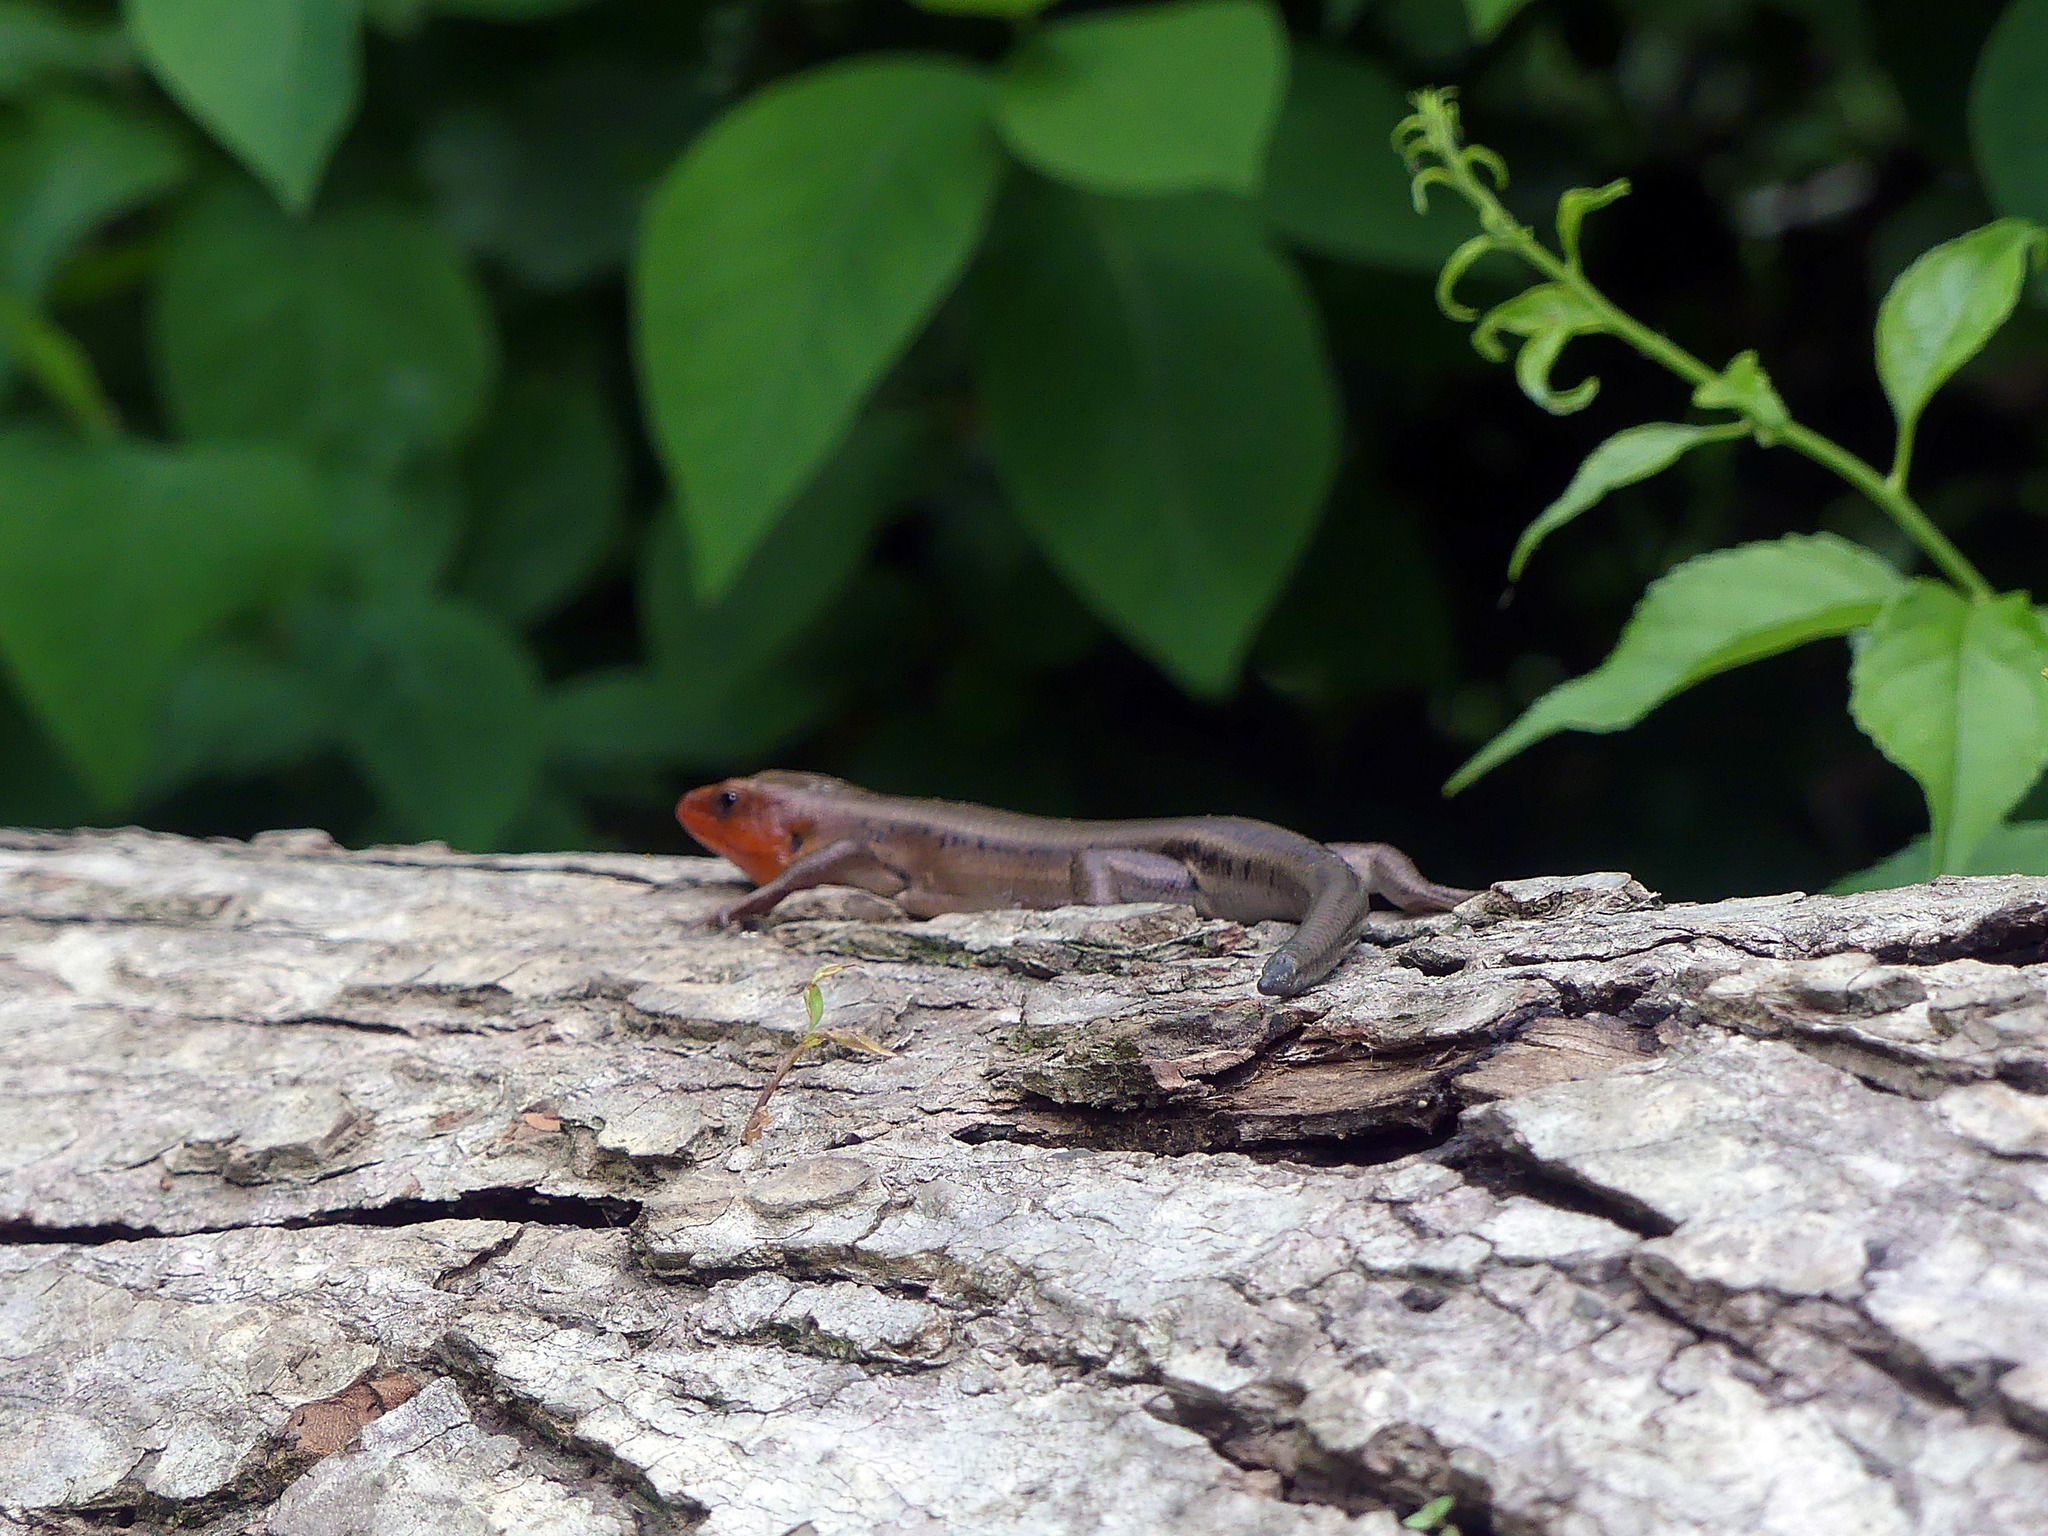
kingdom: Animalia
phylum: Chordata
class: Squamata
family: Scincidae
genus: Plestiodon
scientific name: Plestiodon fasciatus
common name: Five-lined skink
